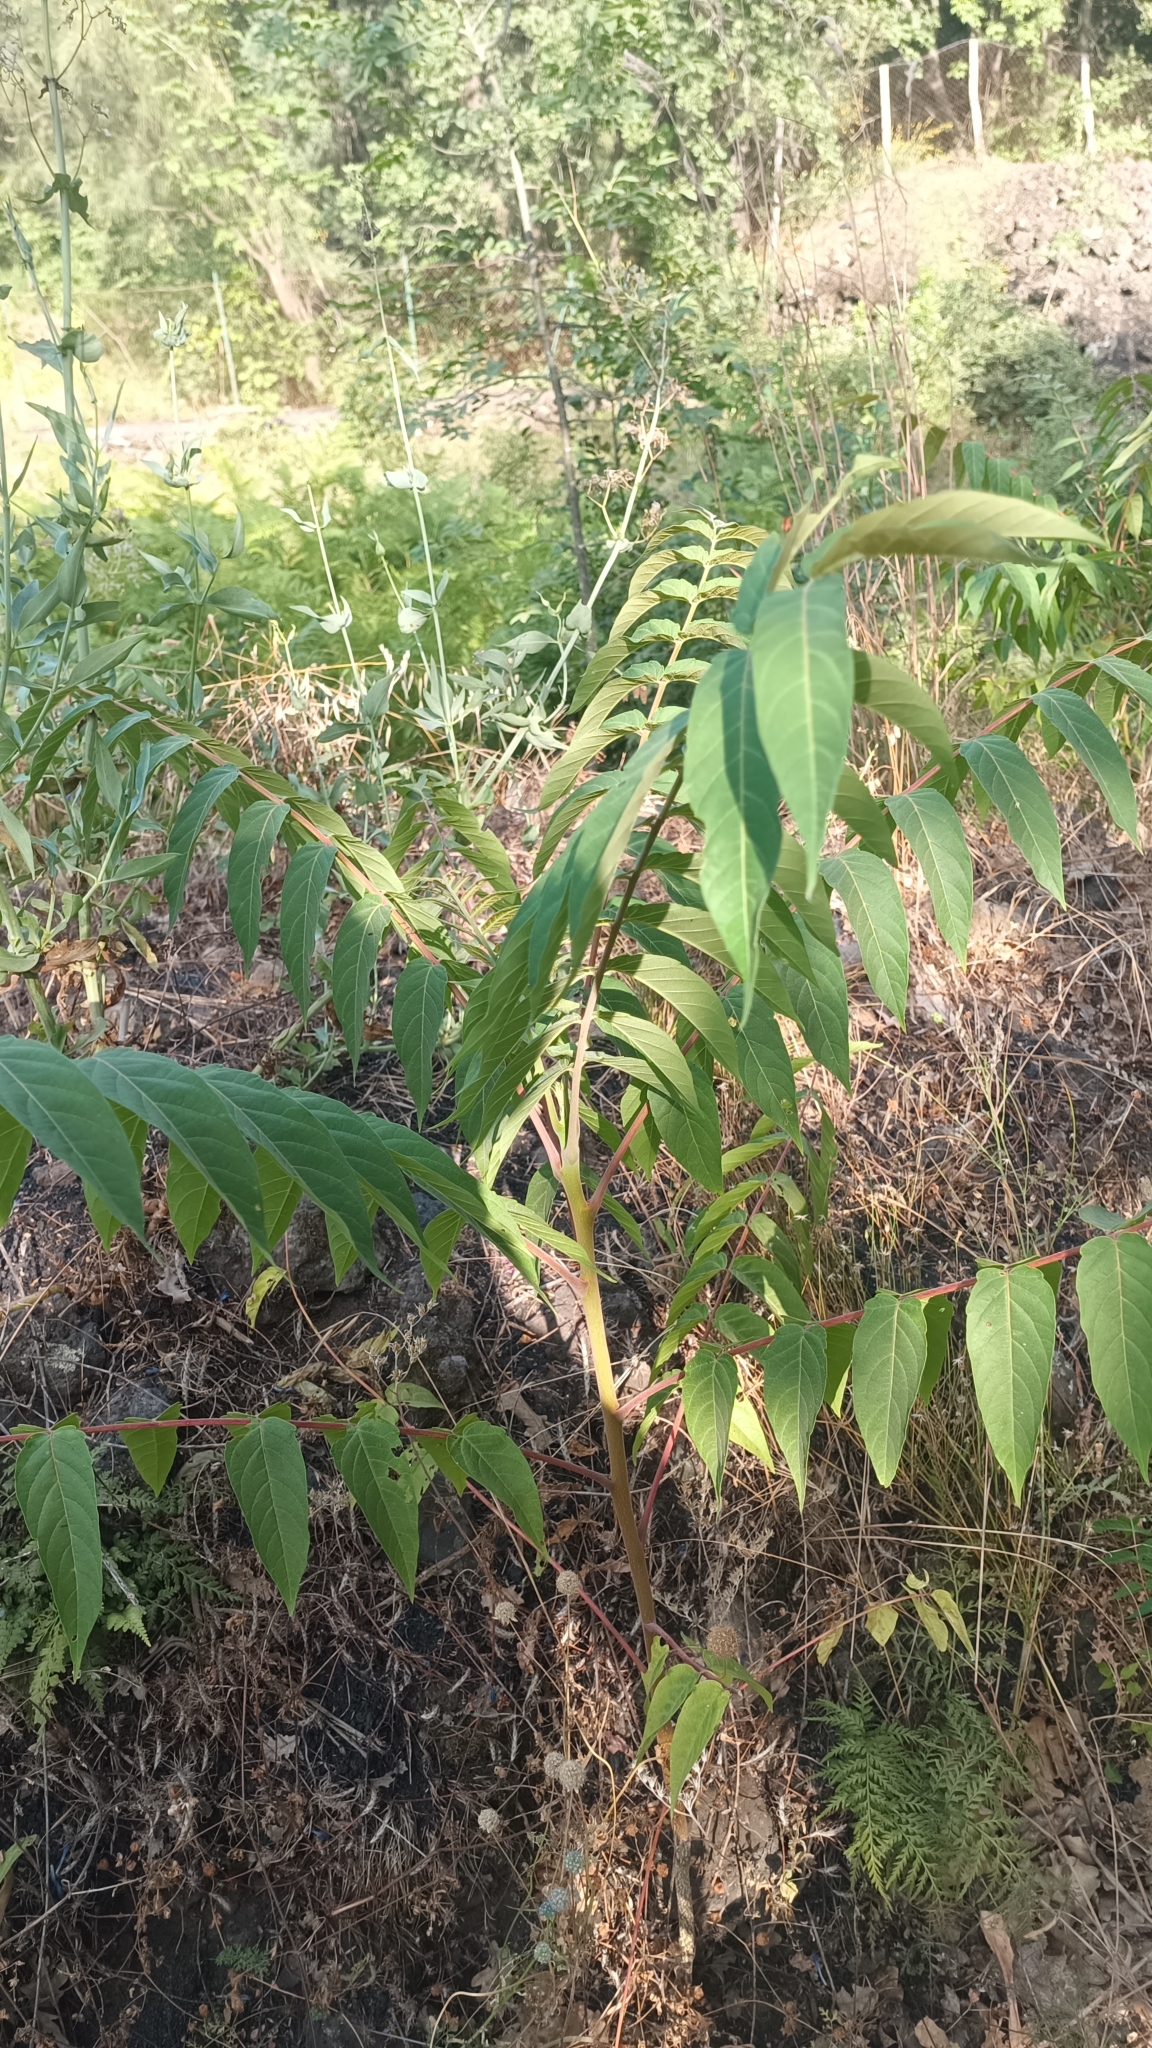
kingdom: Plantae
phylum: Tracheophyta
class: Magnoliopsida
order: Sapindales
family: Simaroubaceae
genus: Ailanthus
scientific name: Ailanthus altissima
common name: Tree-of-heaven
